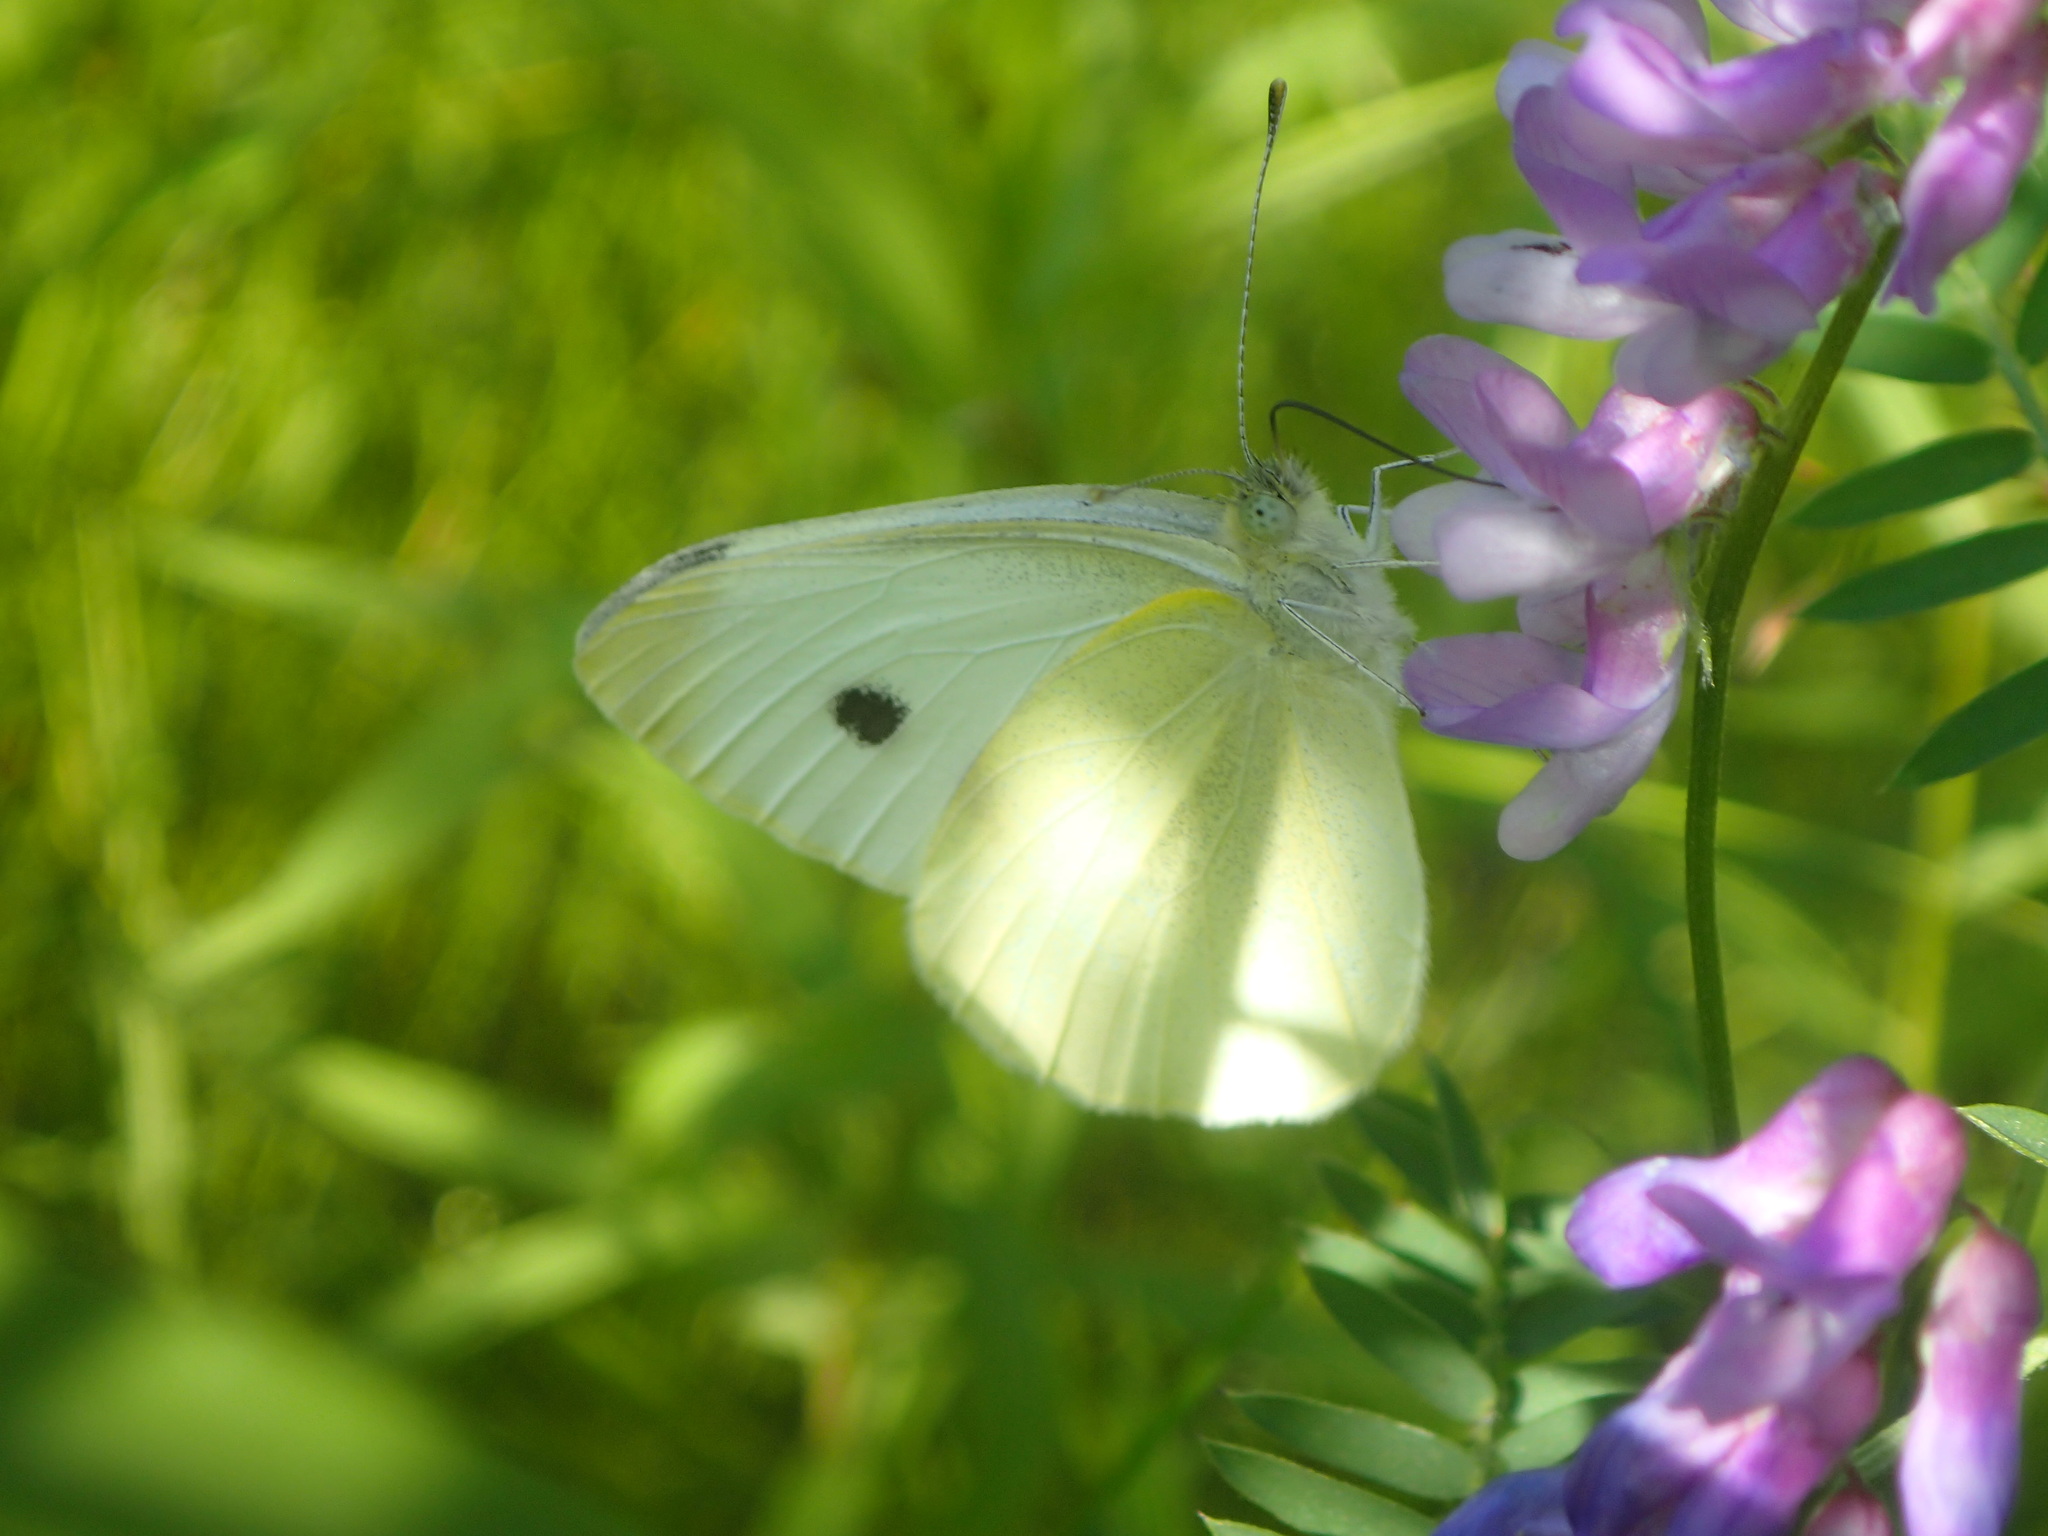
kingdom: Animalia
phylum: Arthropoda
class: Insecta
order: Lepidoptera
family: Pieridae
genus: Pieris
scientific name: Pieris rapae
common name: Small white
